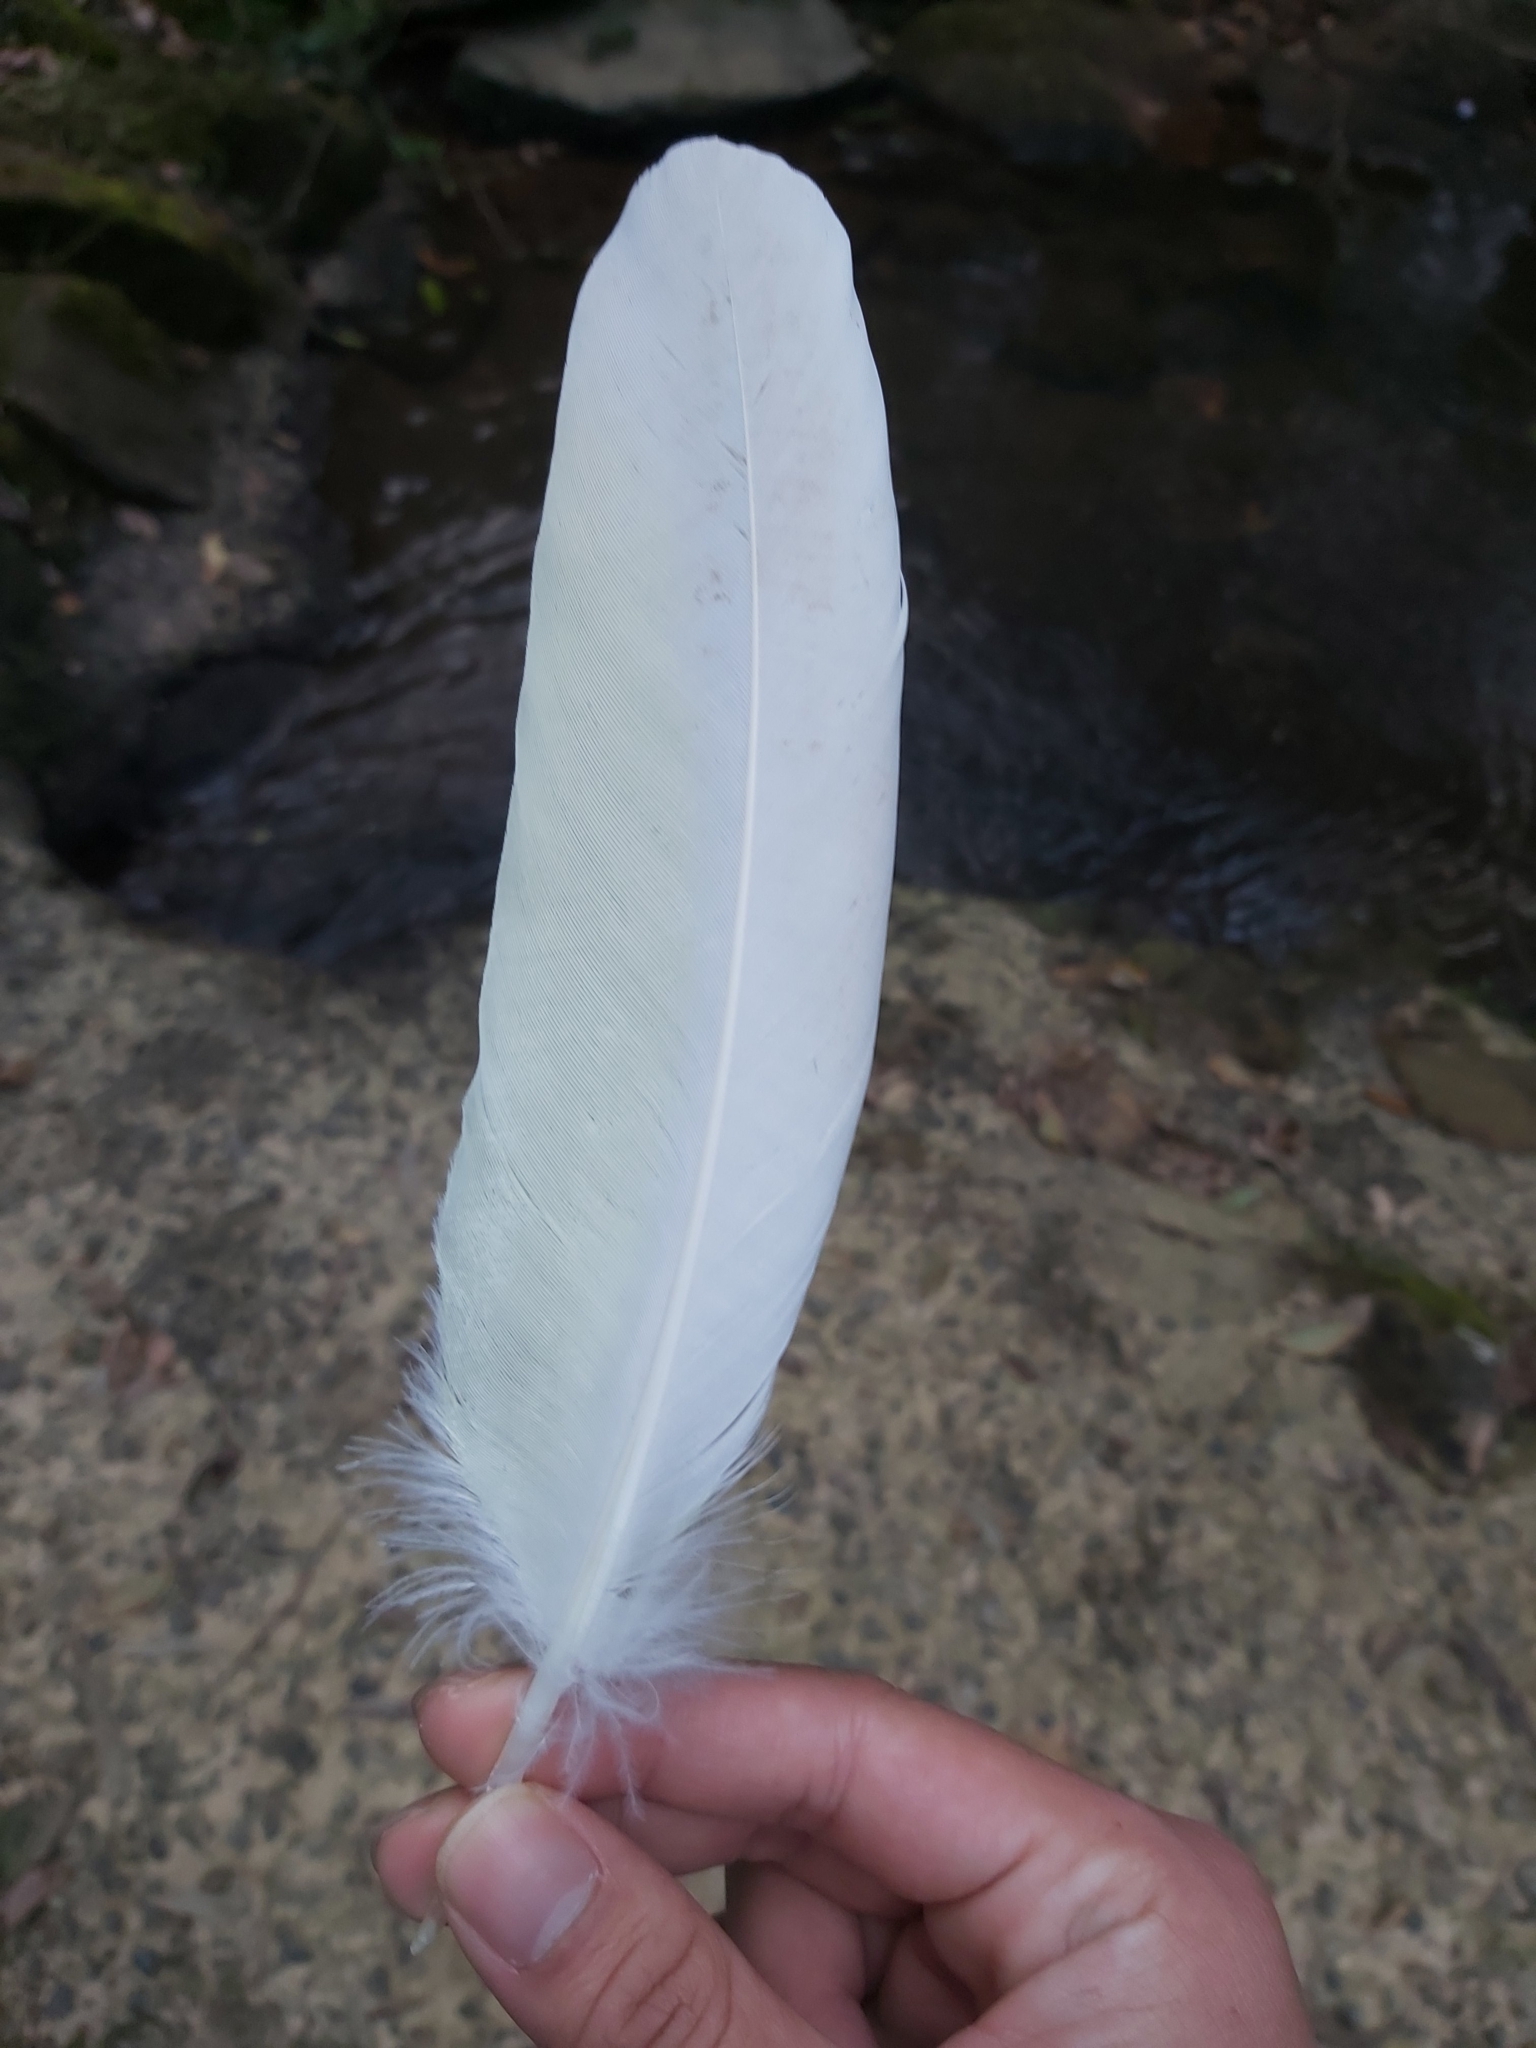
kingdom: Animalia
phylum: Chordata
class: Aves
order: Psittaciformes
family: Psittacidae
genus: Cacatua
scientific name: Cacatua galerita
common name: Sulphur-crested cockatoo
